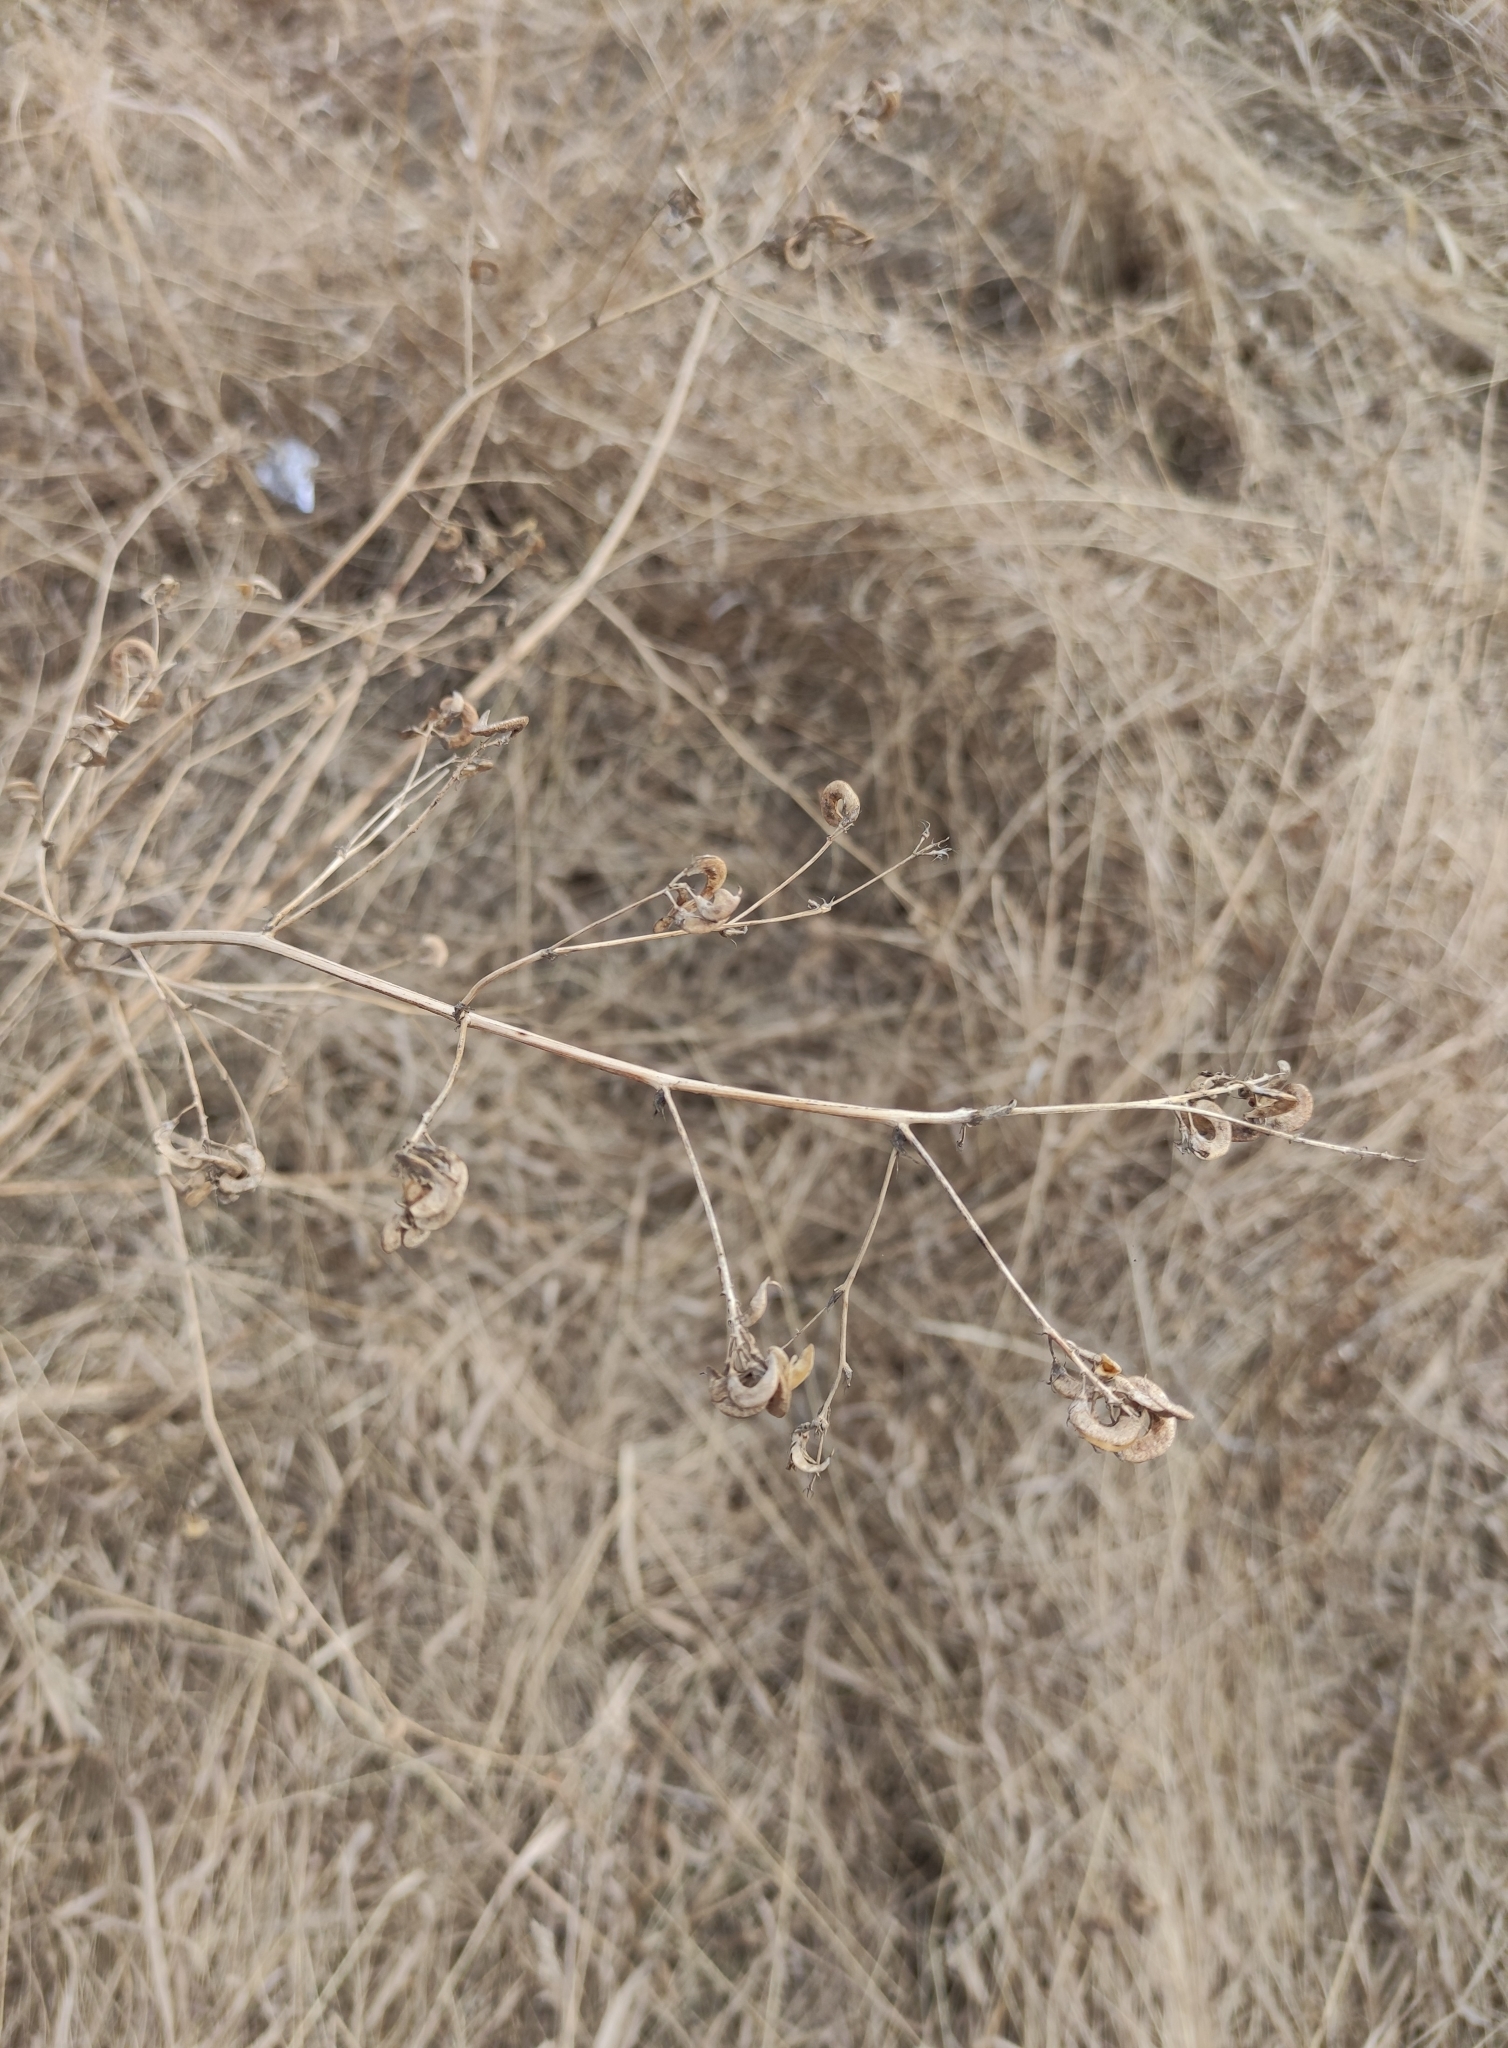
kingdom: Plantae
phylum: Tracheophyta
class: Magnoliopsida
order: Fabales
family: Fabaceae
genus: Medicago
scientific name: Medicago falcata
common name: Sickle medick
